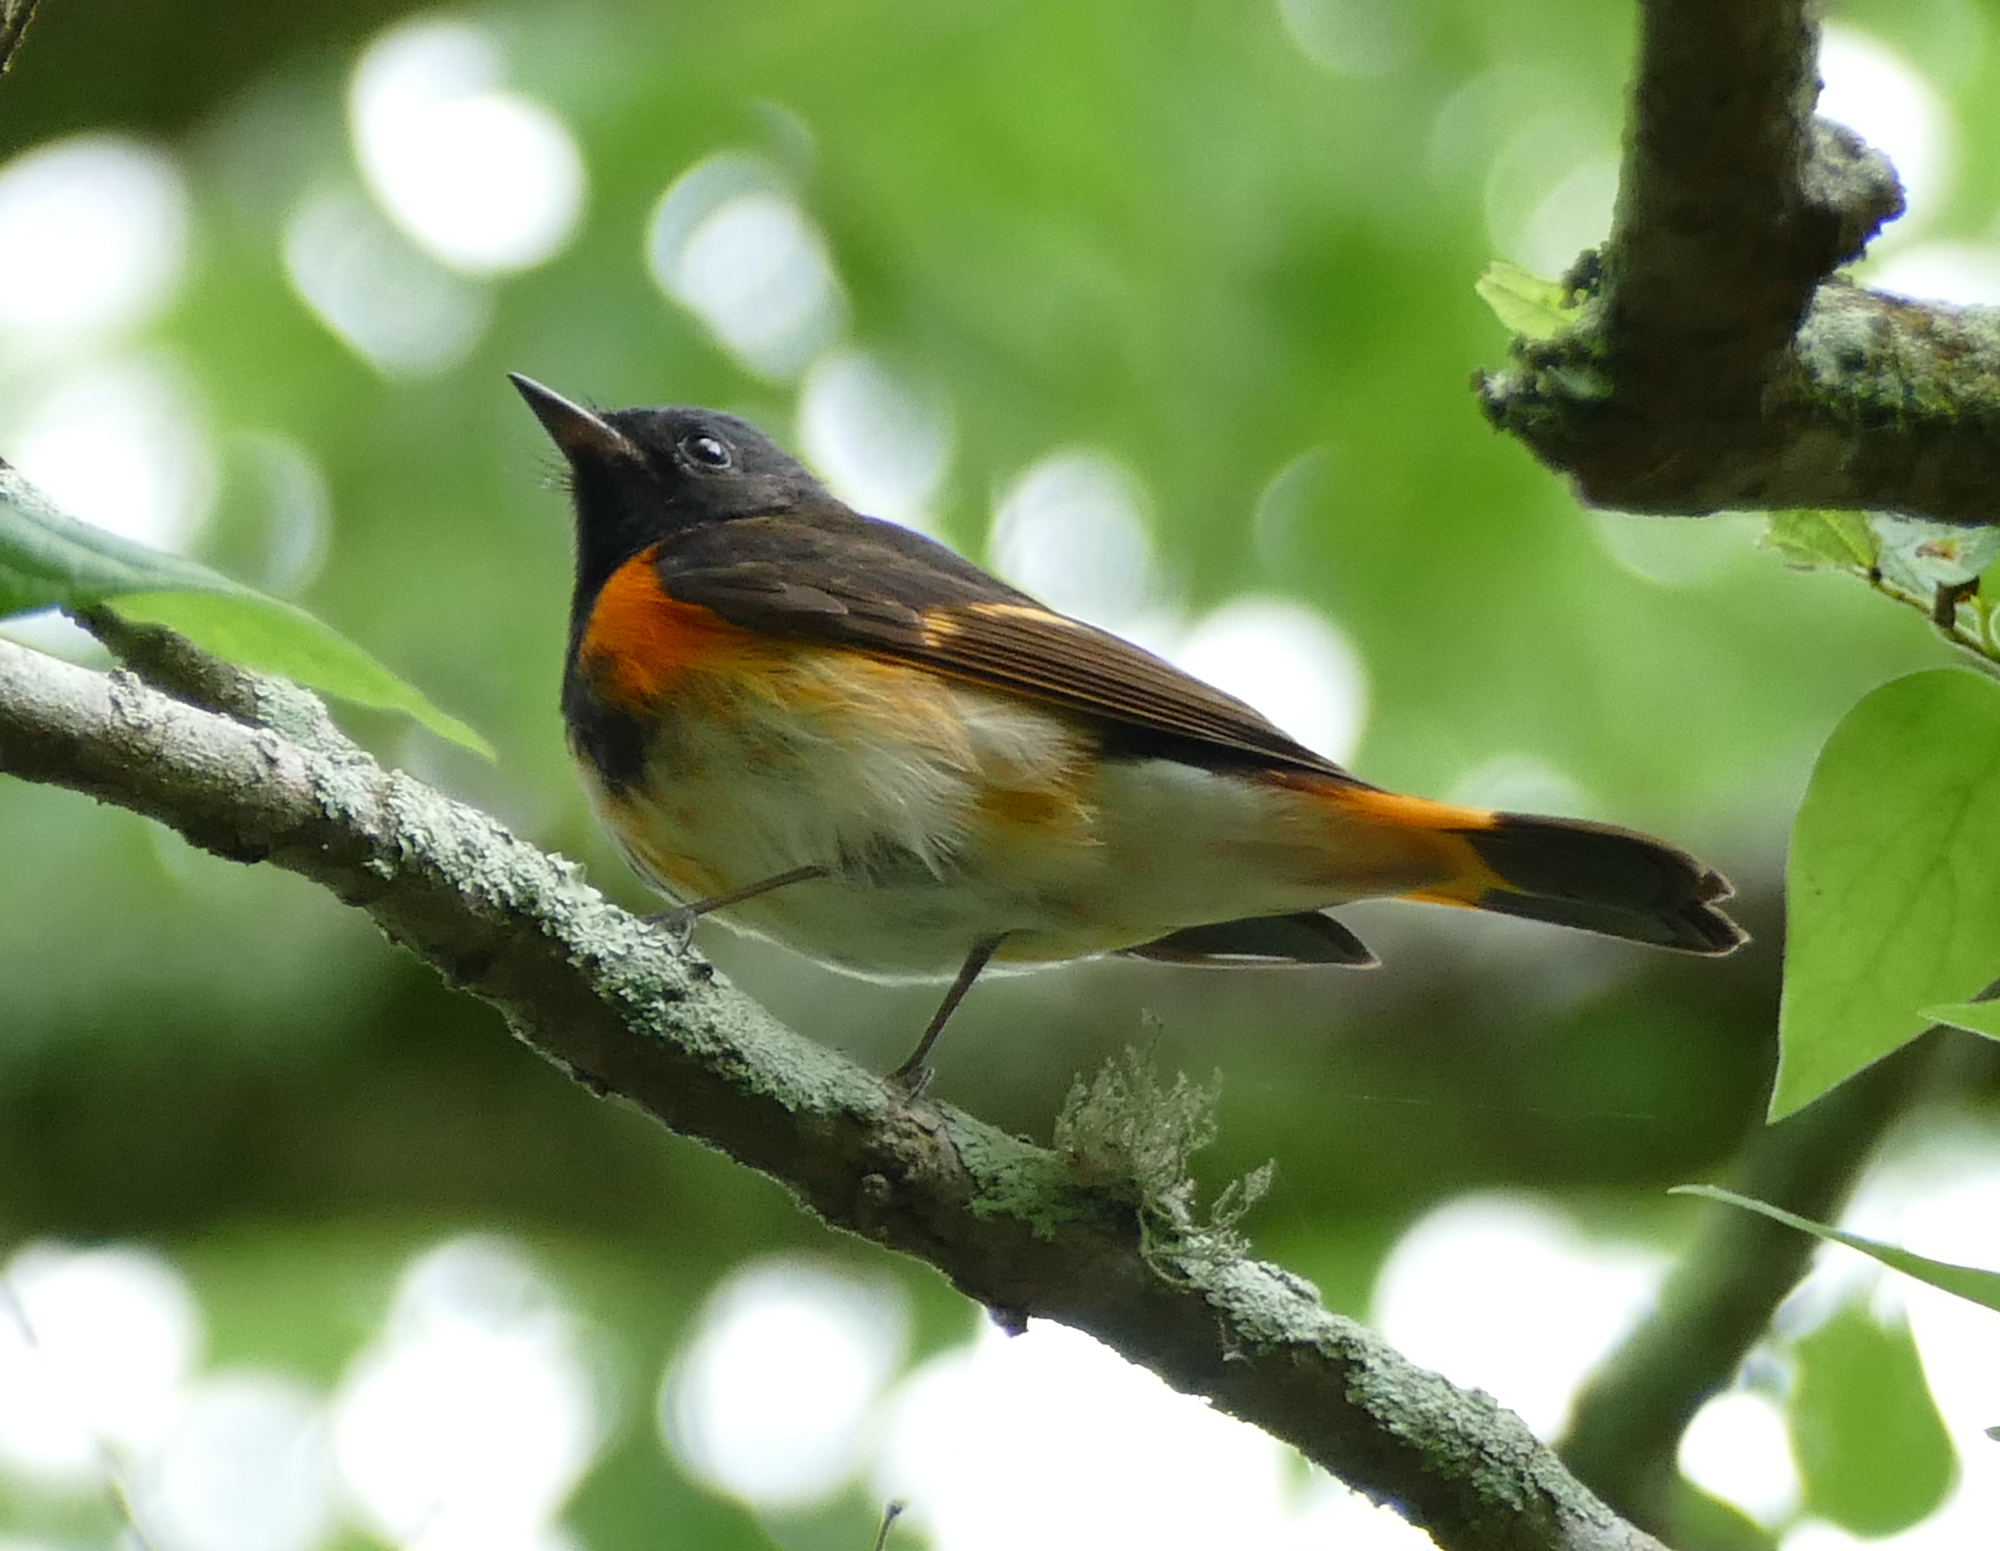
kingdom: Animalia
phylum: Chordata
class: Aves
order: Passeriformes
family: Parulidae
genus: Setophaga
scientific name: Setophaga ruticilla
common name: American redstart
